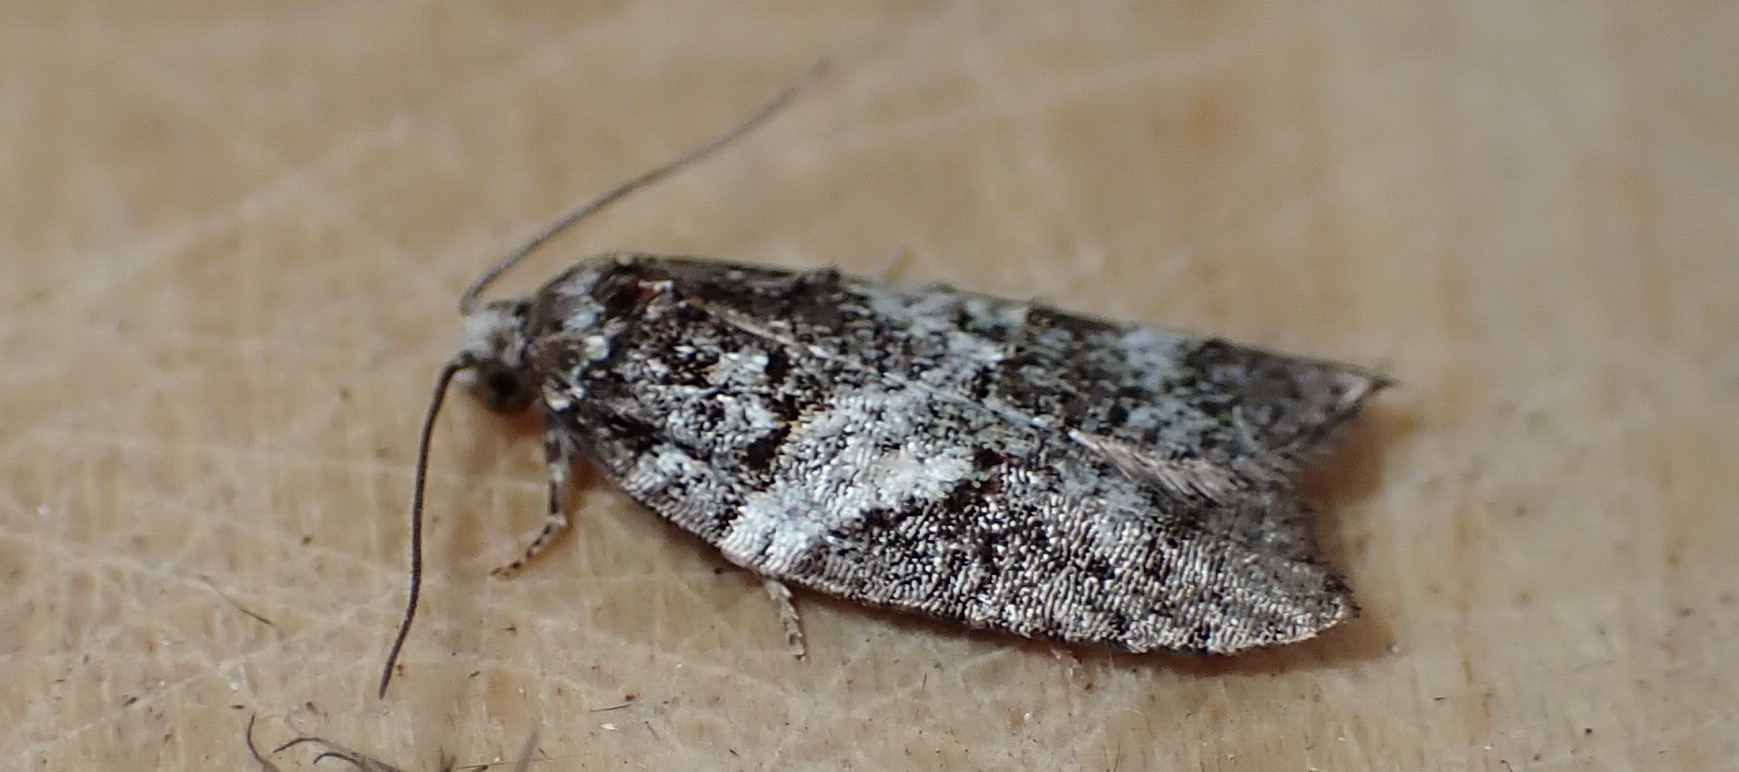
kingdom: Animalia
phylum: Arthropoda
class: Insecta
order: Lepidoptera
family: Tortricidae
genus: Acleris
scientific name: Acleris variana
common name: Eastern black-headed budworm moth
